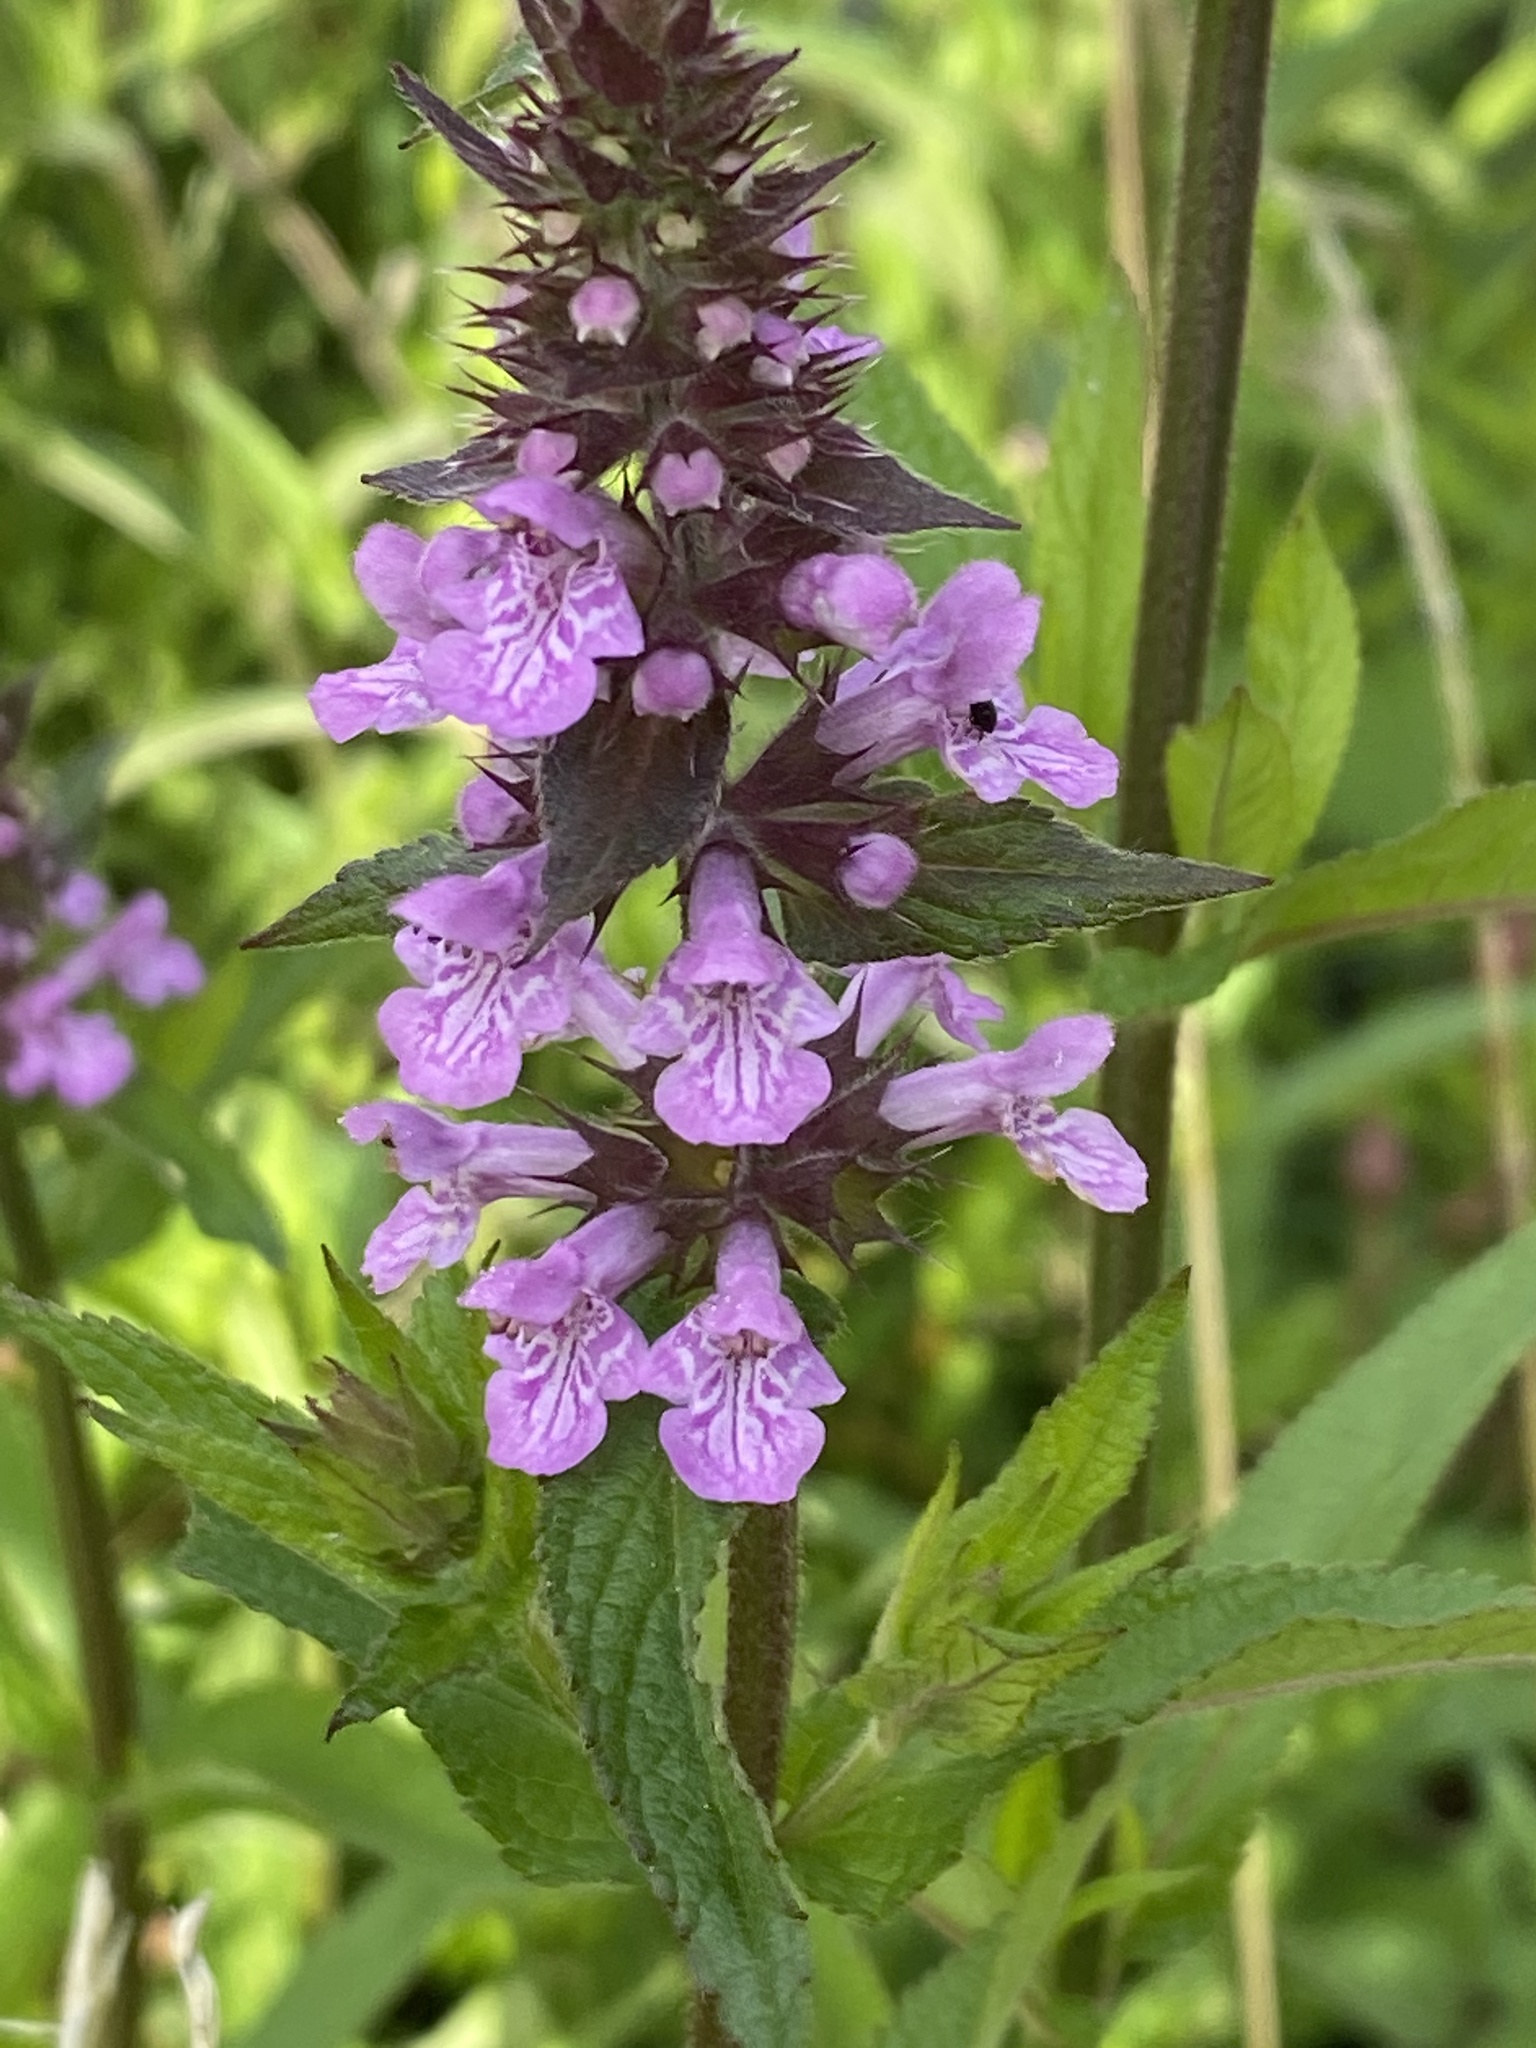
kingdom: Plantae
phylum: Tracheophyta
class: Magnoliopsida
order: Lamiales
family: Lamiaceae
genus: Stachys
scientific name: Stachys palustris
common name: Marsh woundwort
